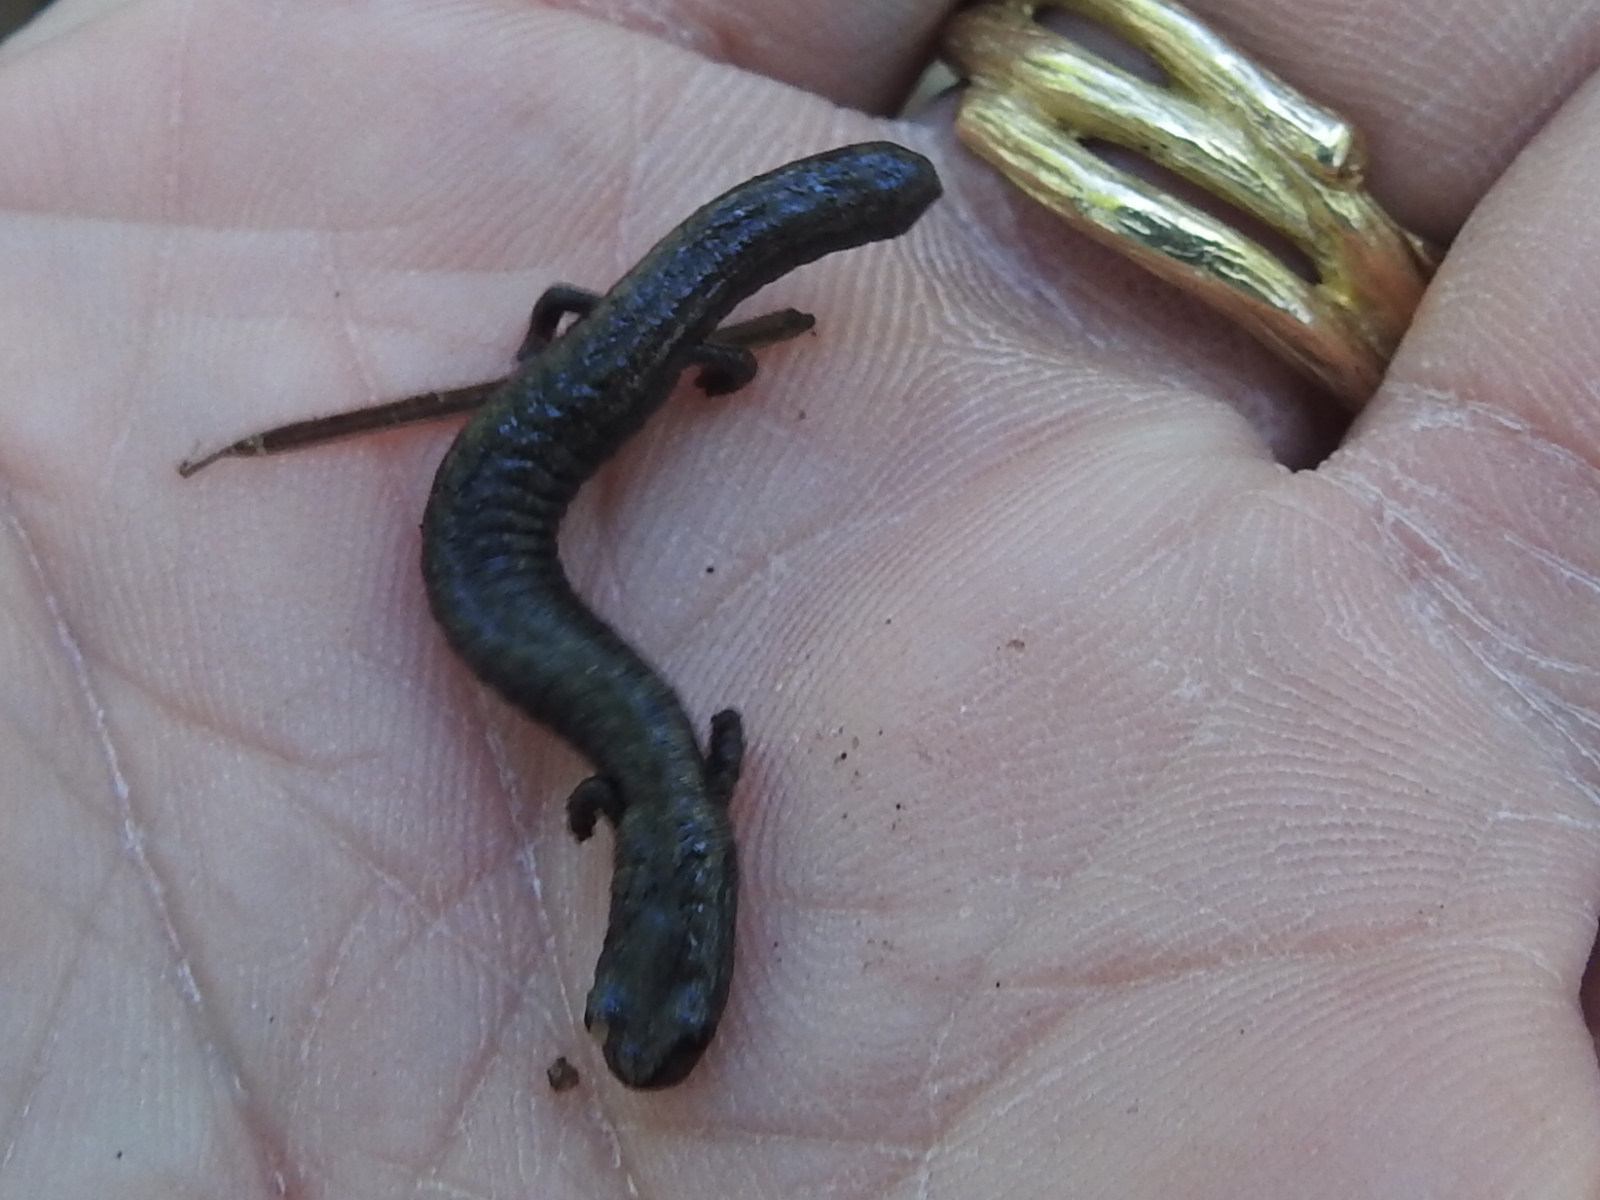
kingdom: Animalia
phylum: Chordata
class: Amphibia
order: Caudata
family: Plethodontidae
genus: Batrachoseps
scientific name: Batrachoseps attenuatus
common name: California slender salamander
